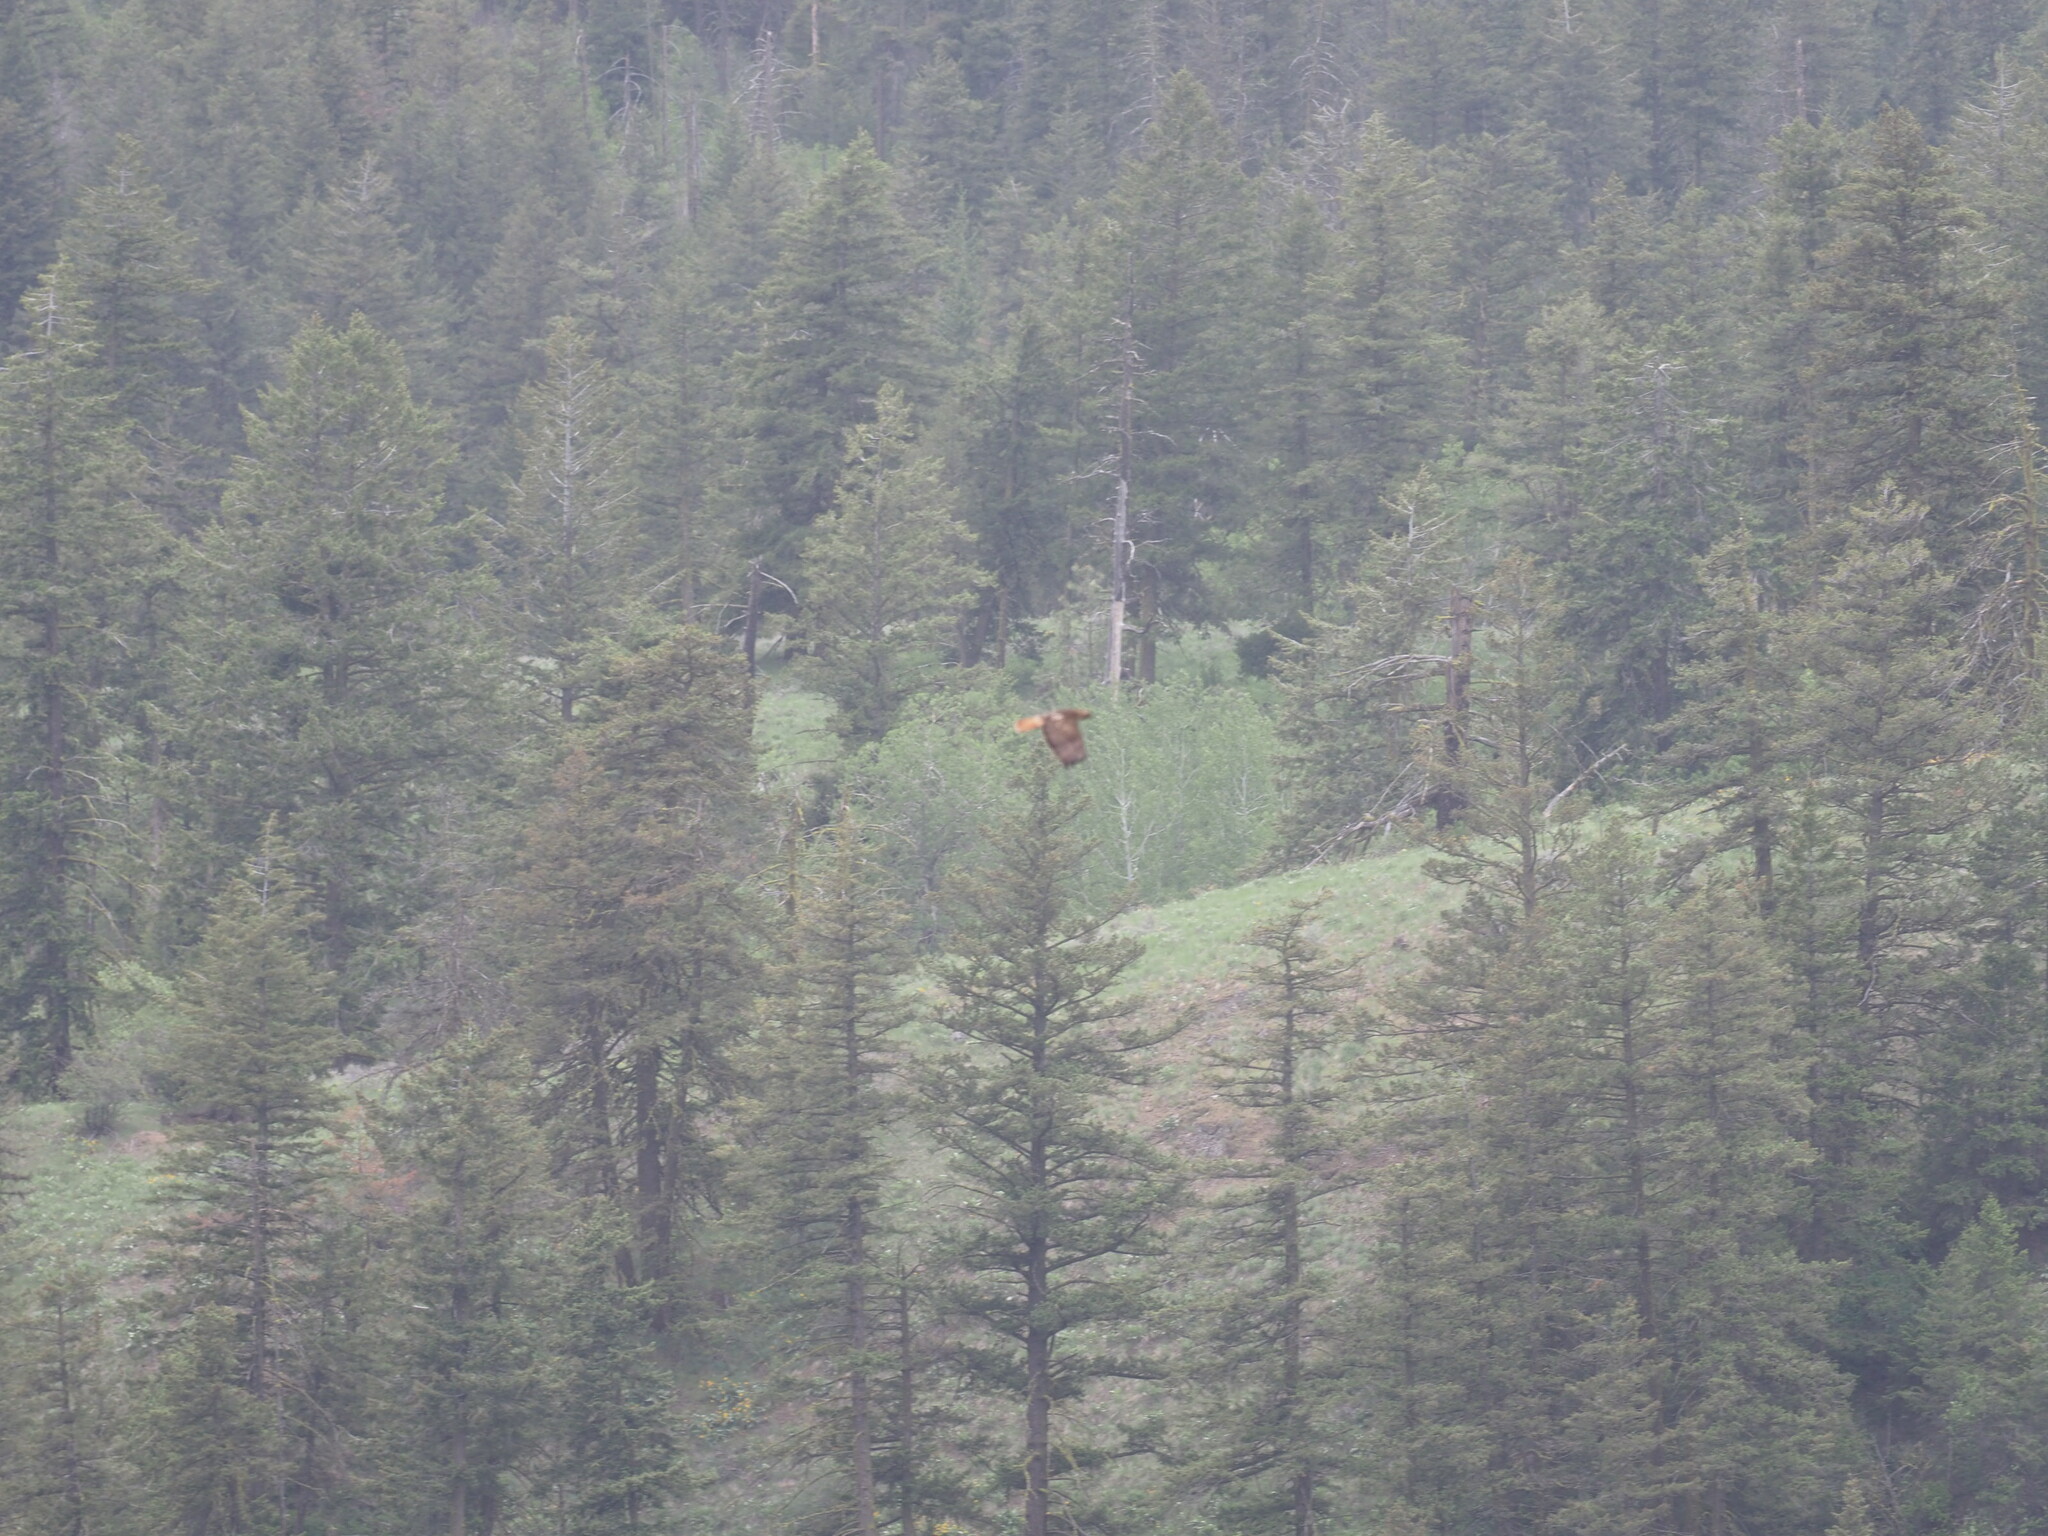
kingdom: Animalia
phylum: Chordata
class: Aves
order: Accipitriformes
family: Accipitridae
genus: Buteo
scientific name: Buteo jamaicensis
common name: Red-tailed hawk
